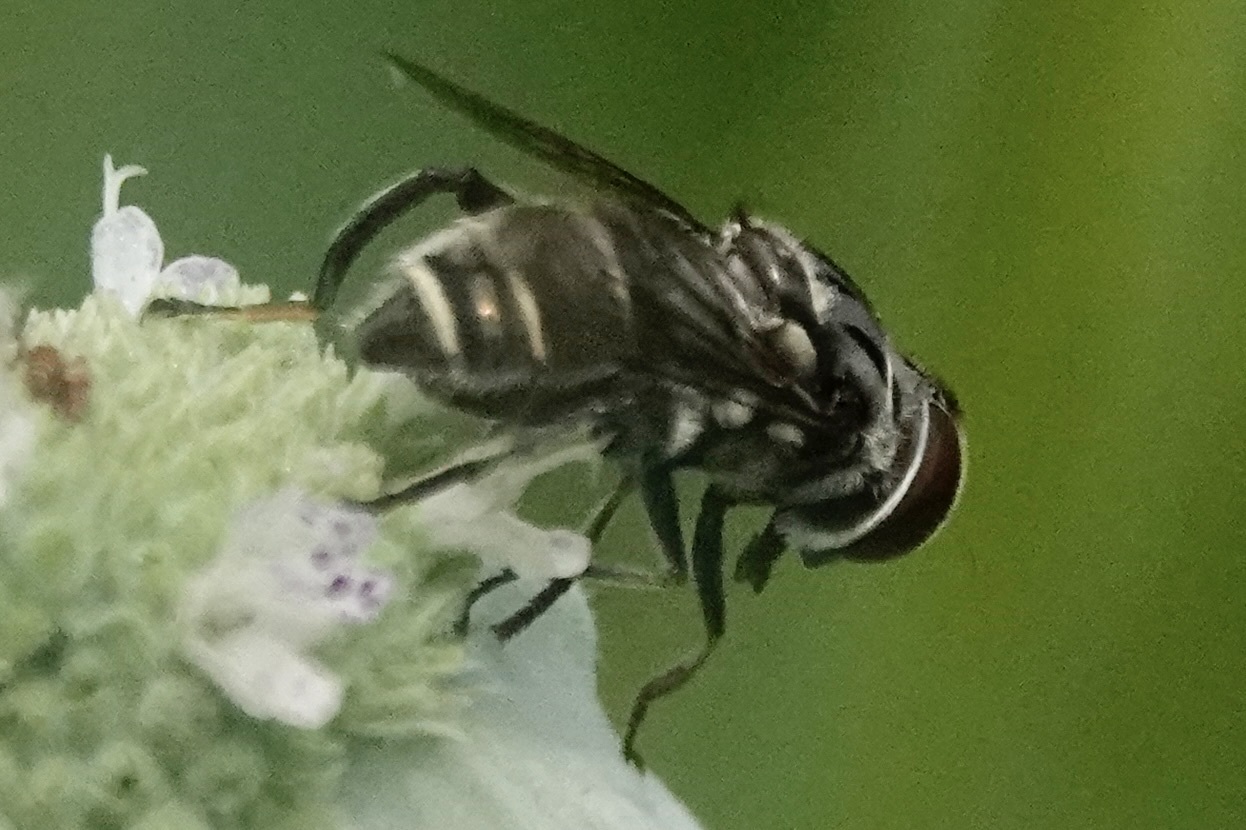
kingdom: Animalia
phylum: Arthropoda
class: Insecta
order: Diptera
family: Syrphidae
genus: Palpada
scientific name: Palpada furcata
